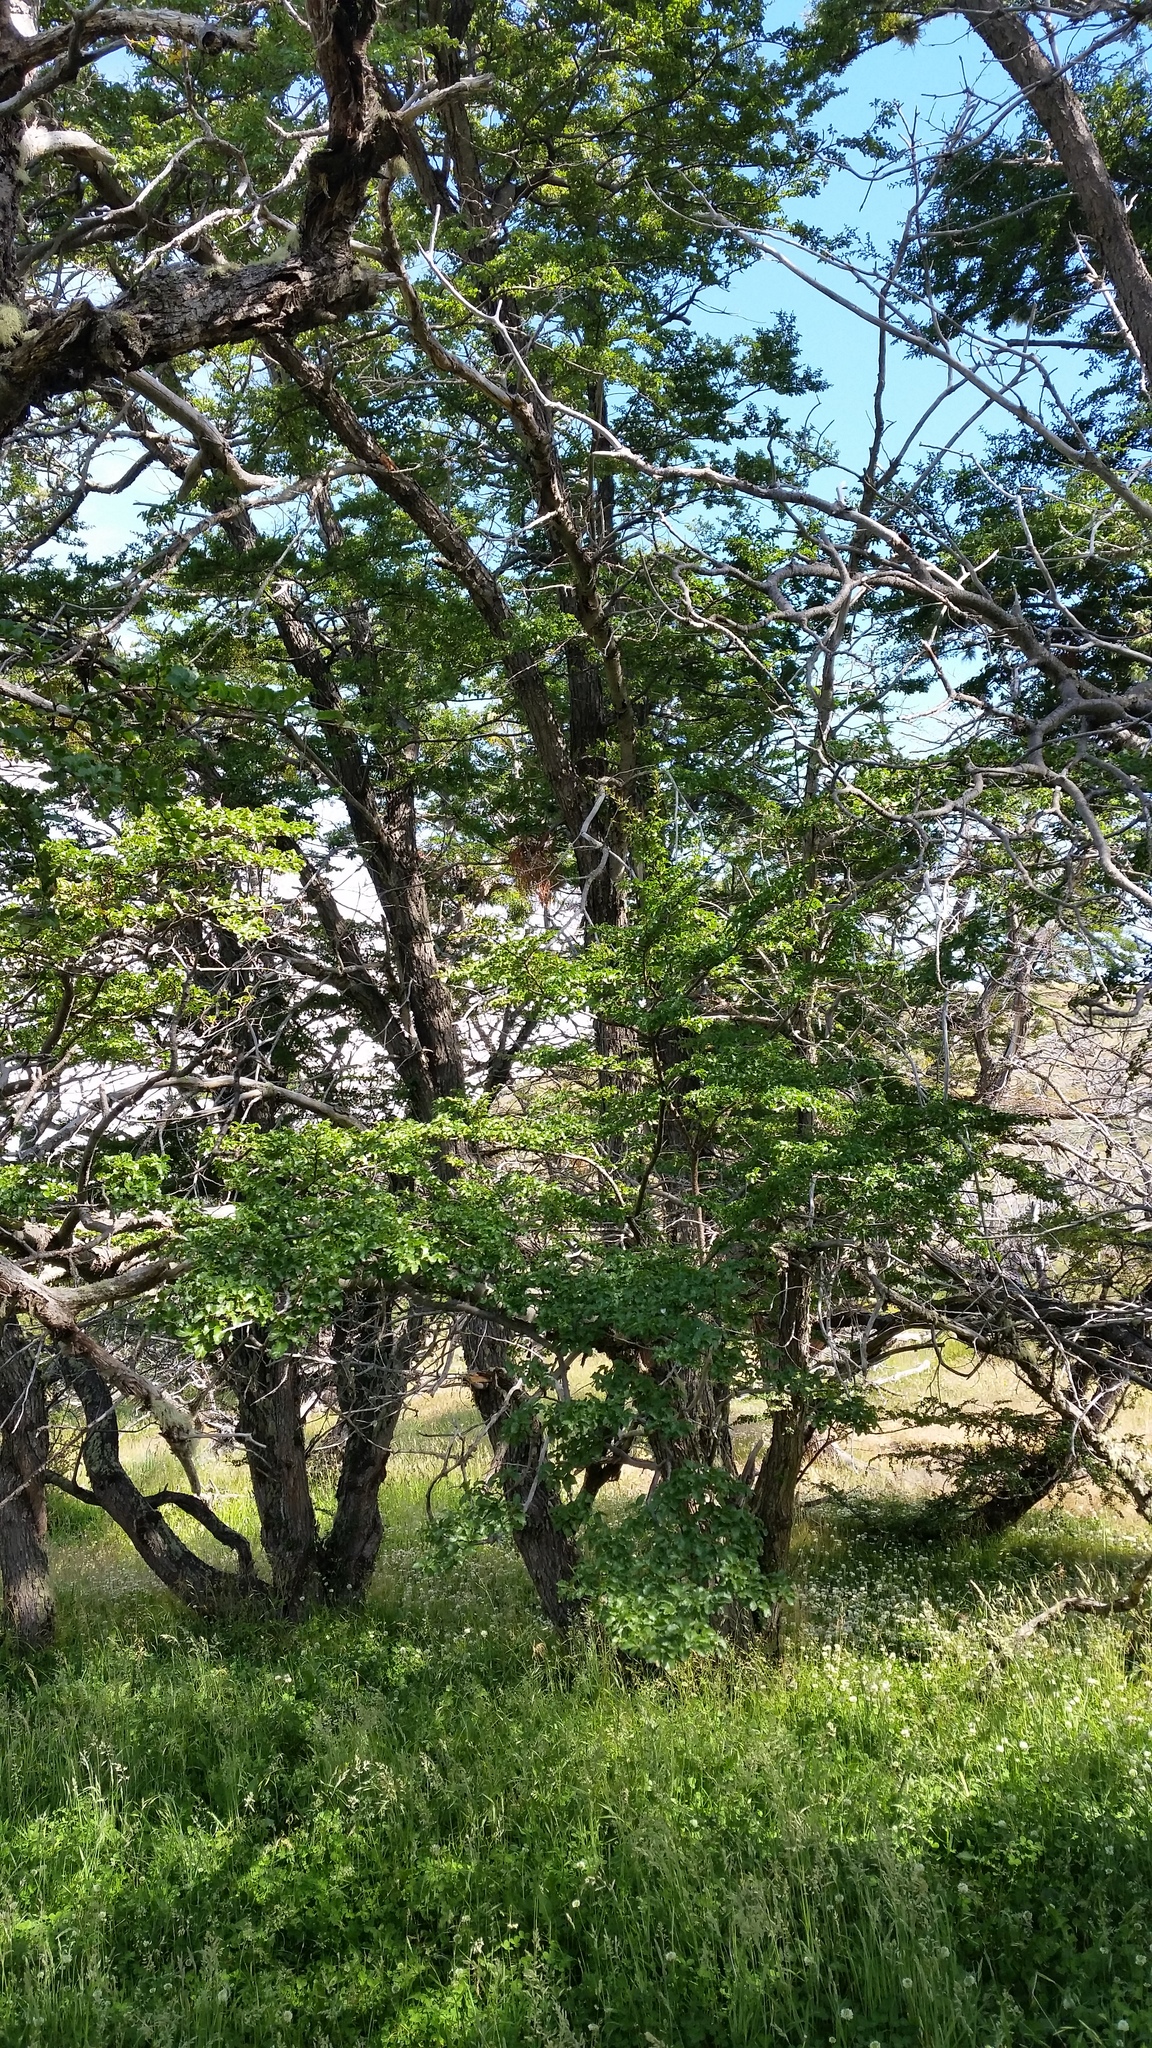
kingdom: Plantae
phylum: Tracheophyta
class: Magnoliopsida
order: Fagales
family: Nothofagaceae
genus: Nothofagus
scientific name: Nothofagus antarctica
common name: Antarctic beech
